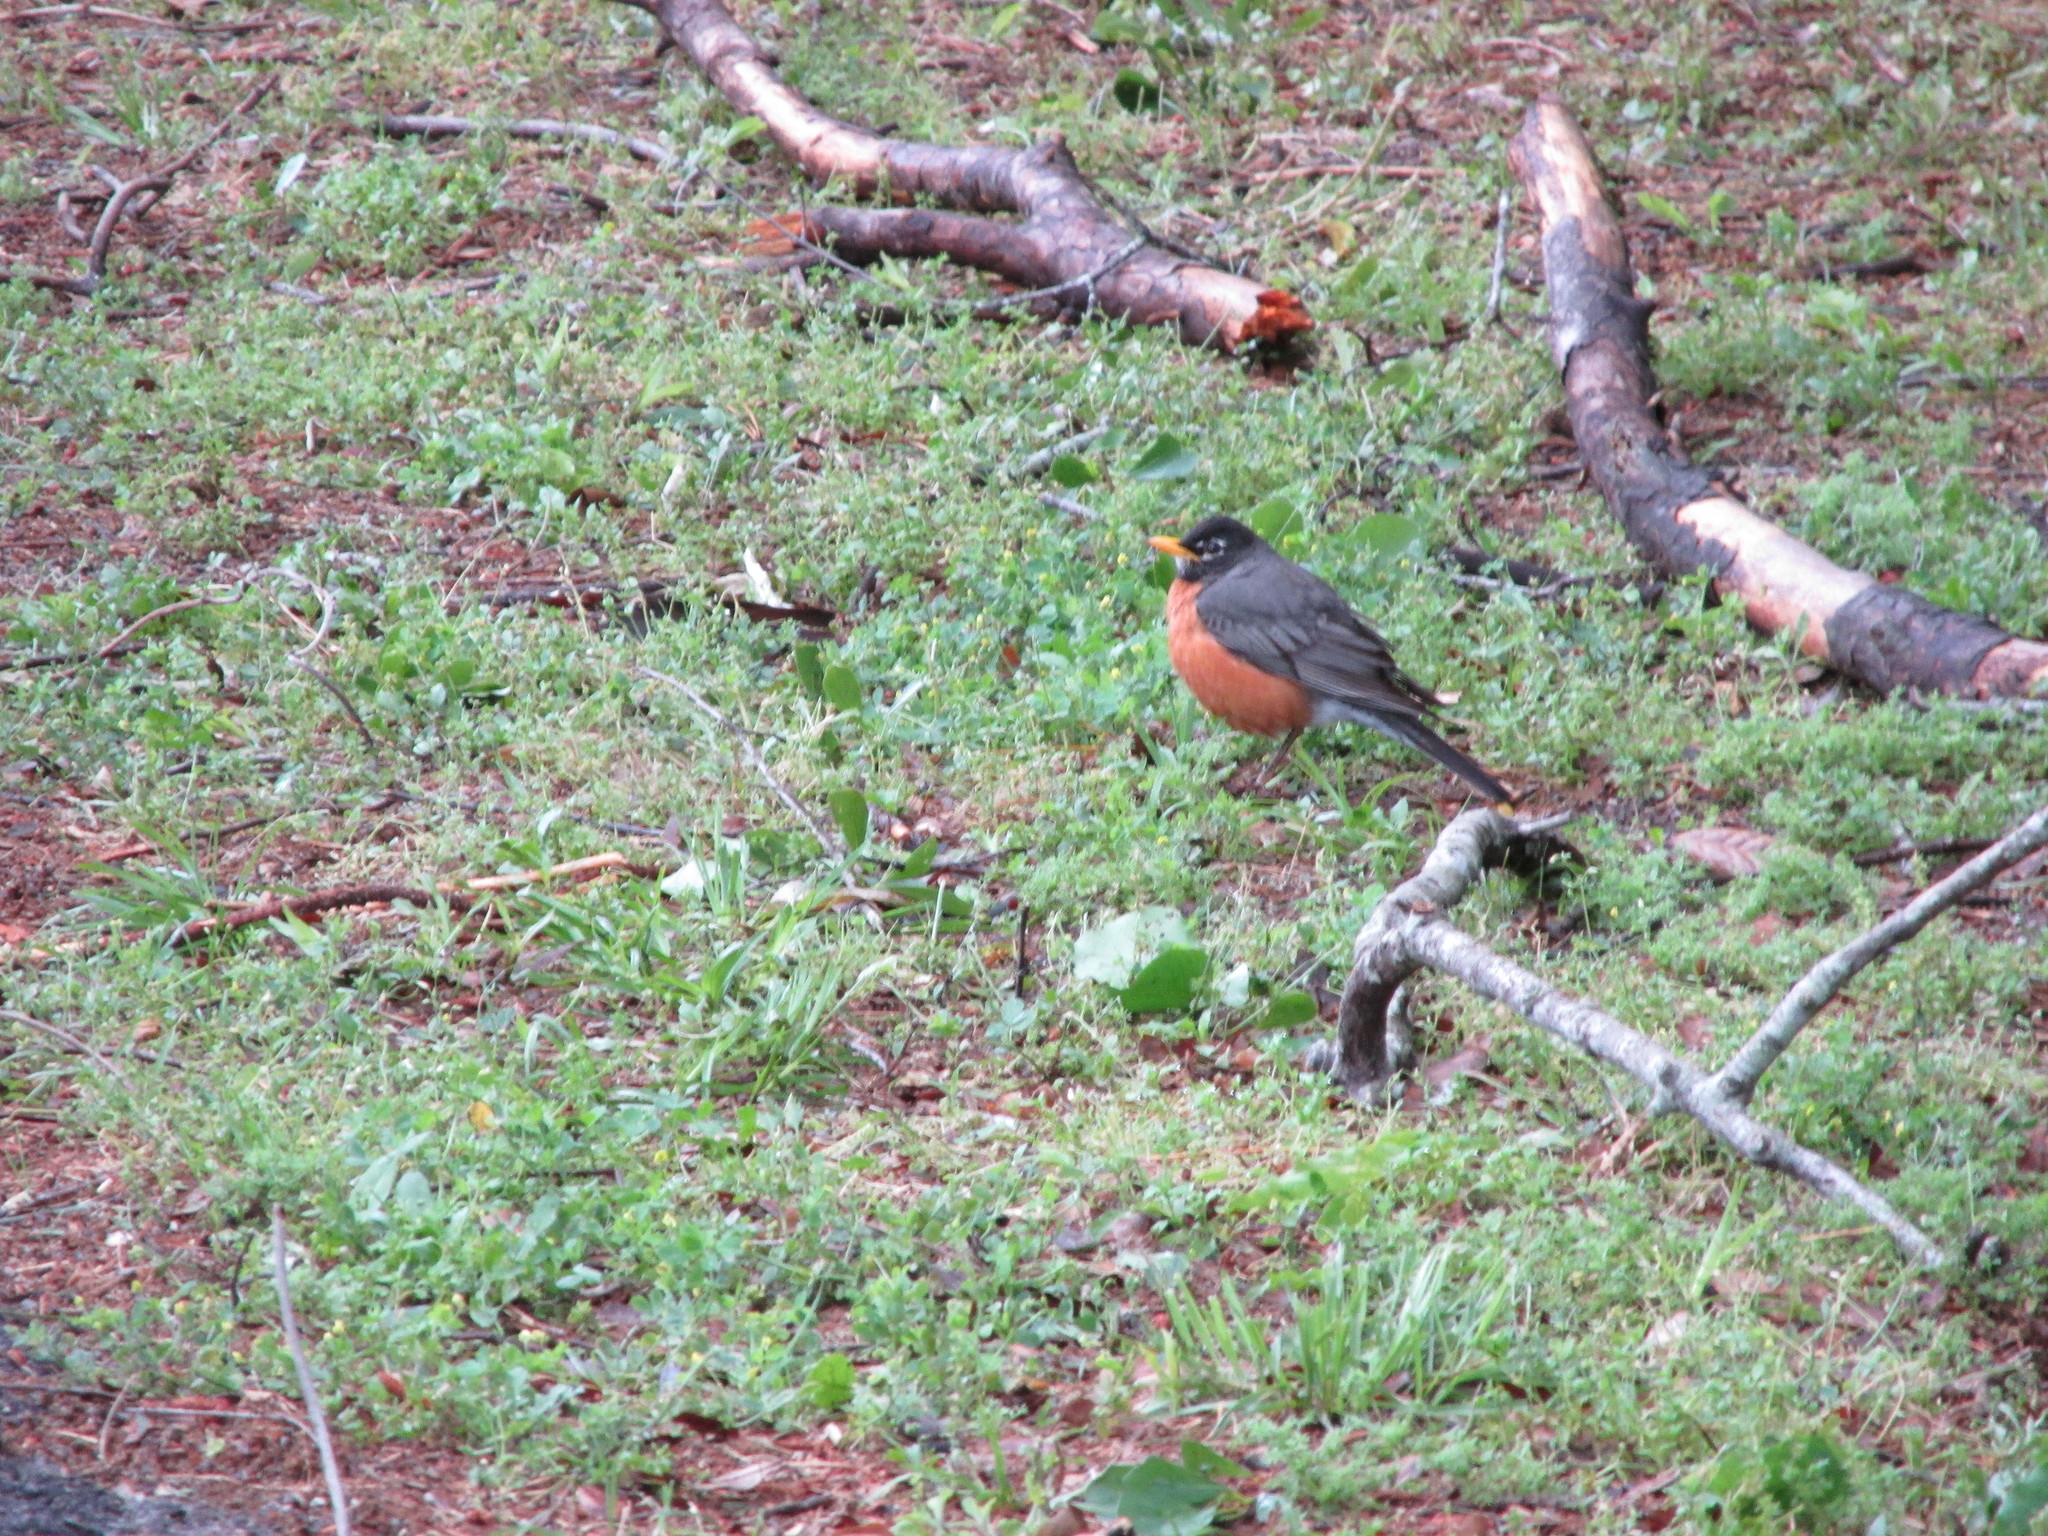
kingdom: Animalia
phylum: Chordata
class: Aves
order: Passeriformes
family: Turdidae
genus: Turdus
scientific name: Turdus migratorius
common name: American robin
